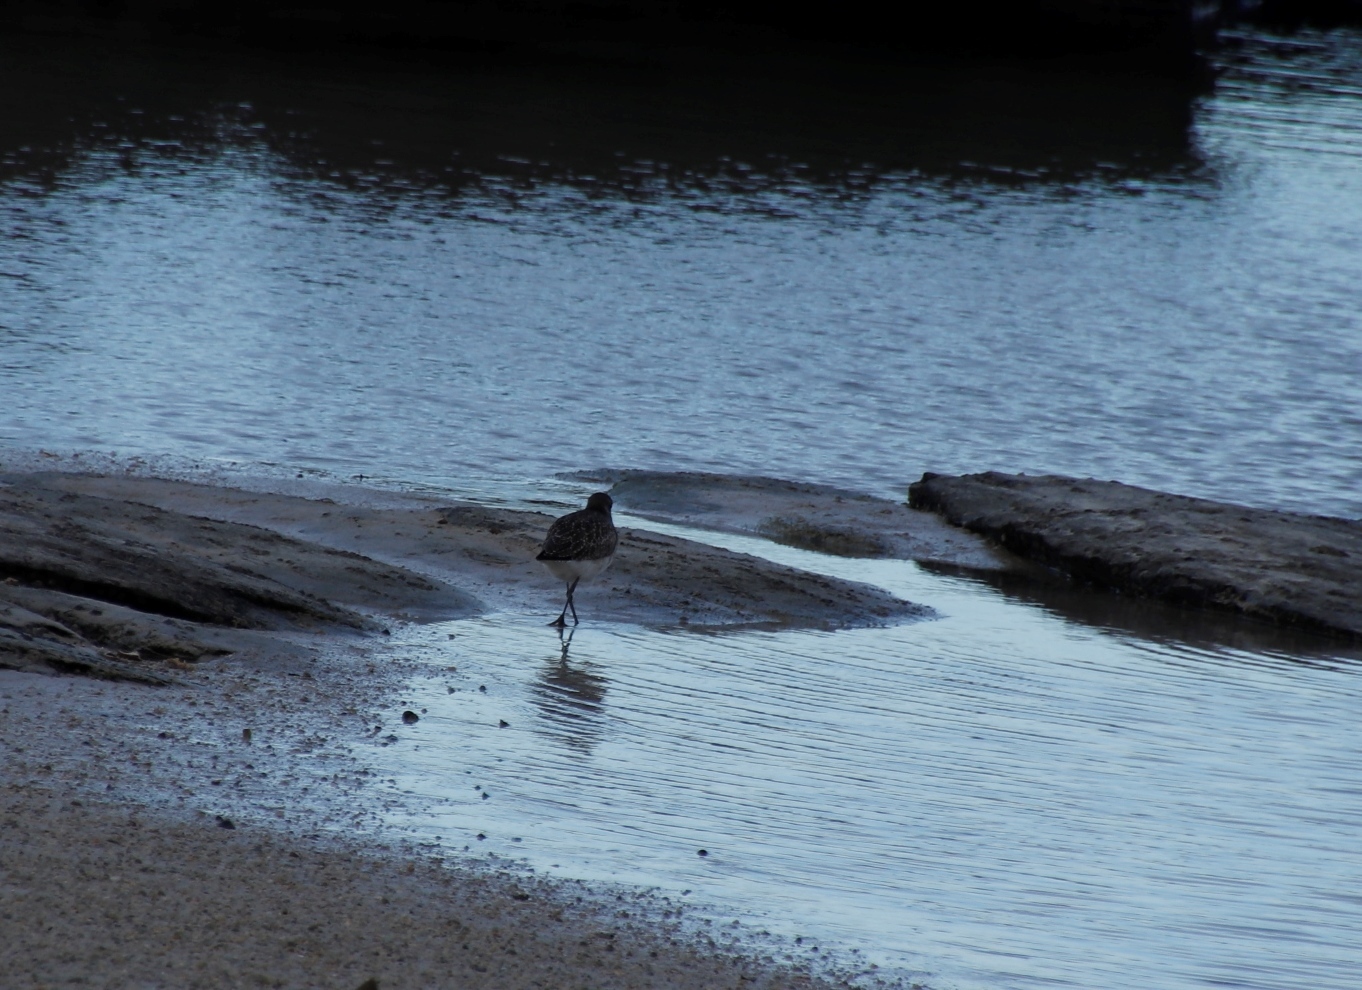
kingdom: Animalia
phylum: Chordata
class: Aves
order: Charadriiformes
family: Charadriidae
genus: Pluvialis
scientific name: Pluvialis squatarola
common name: Grey plover
